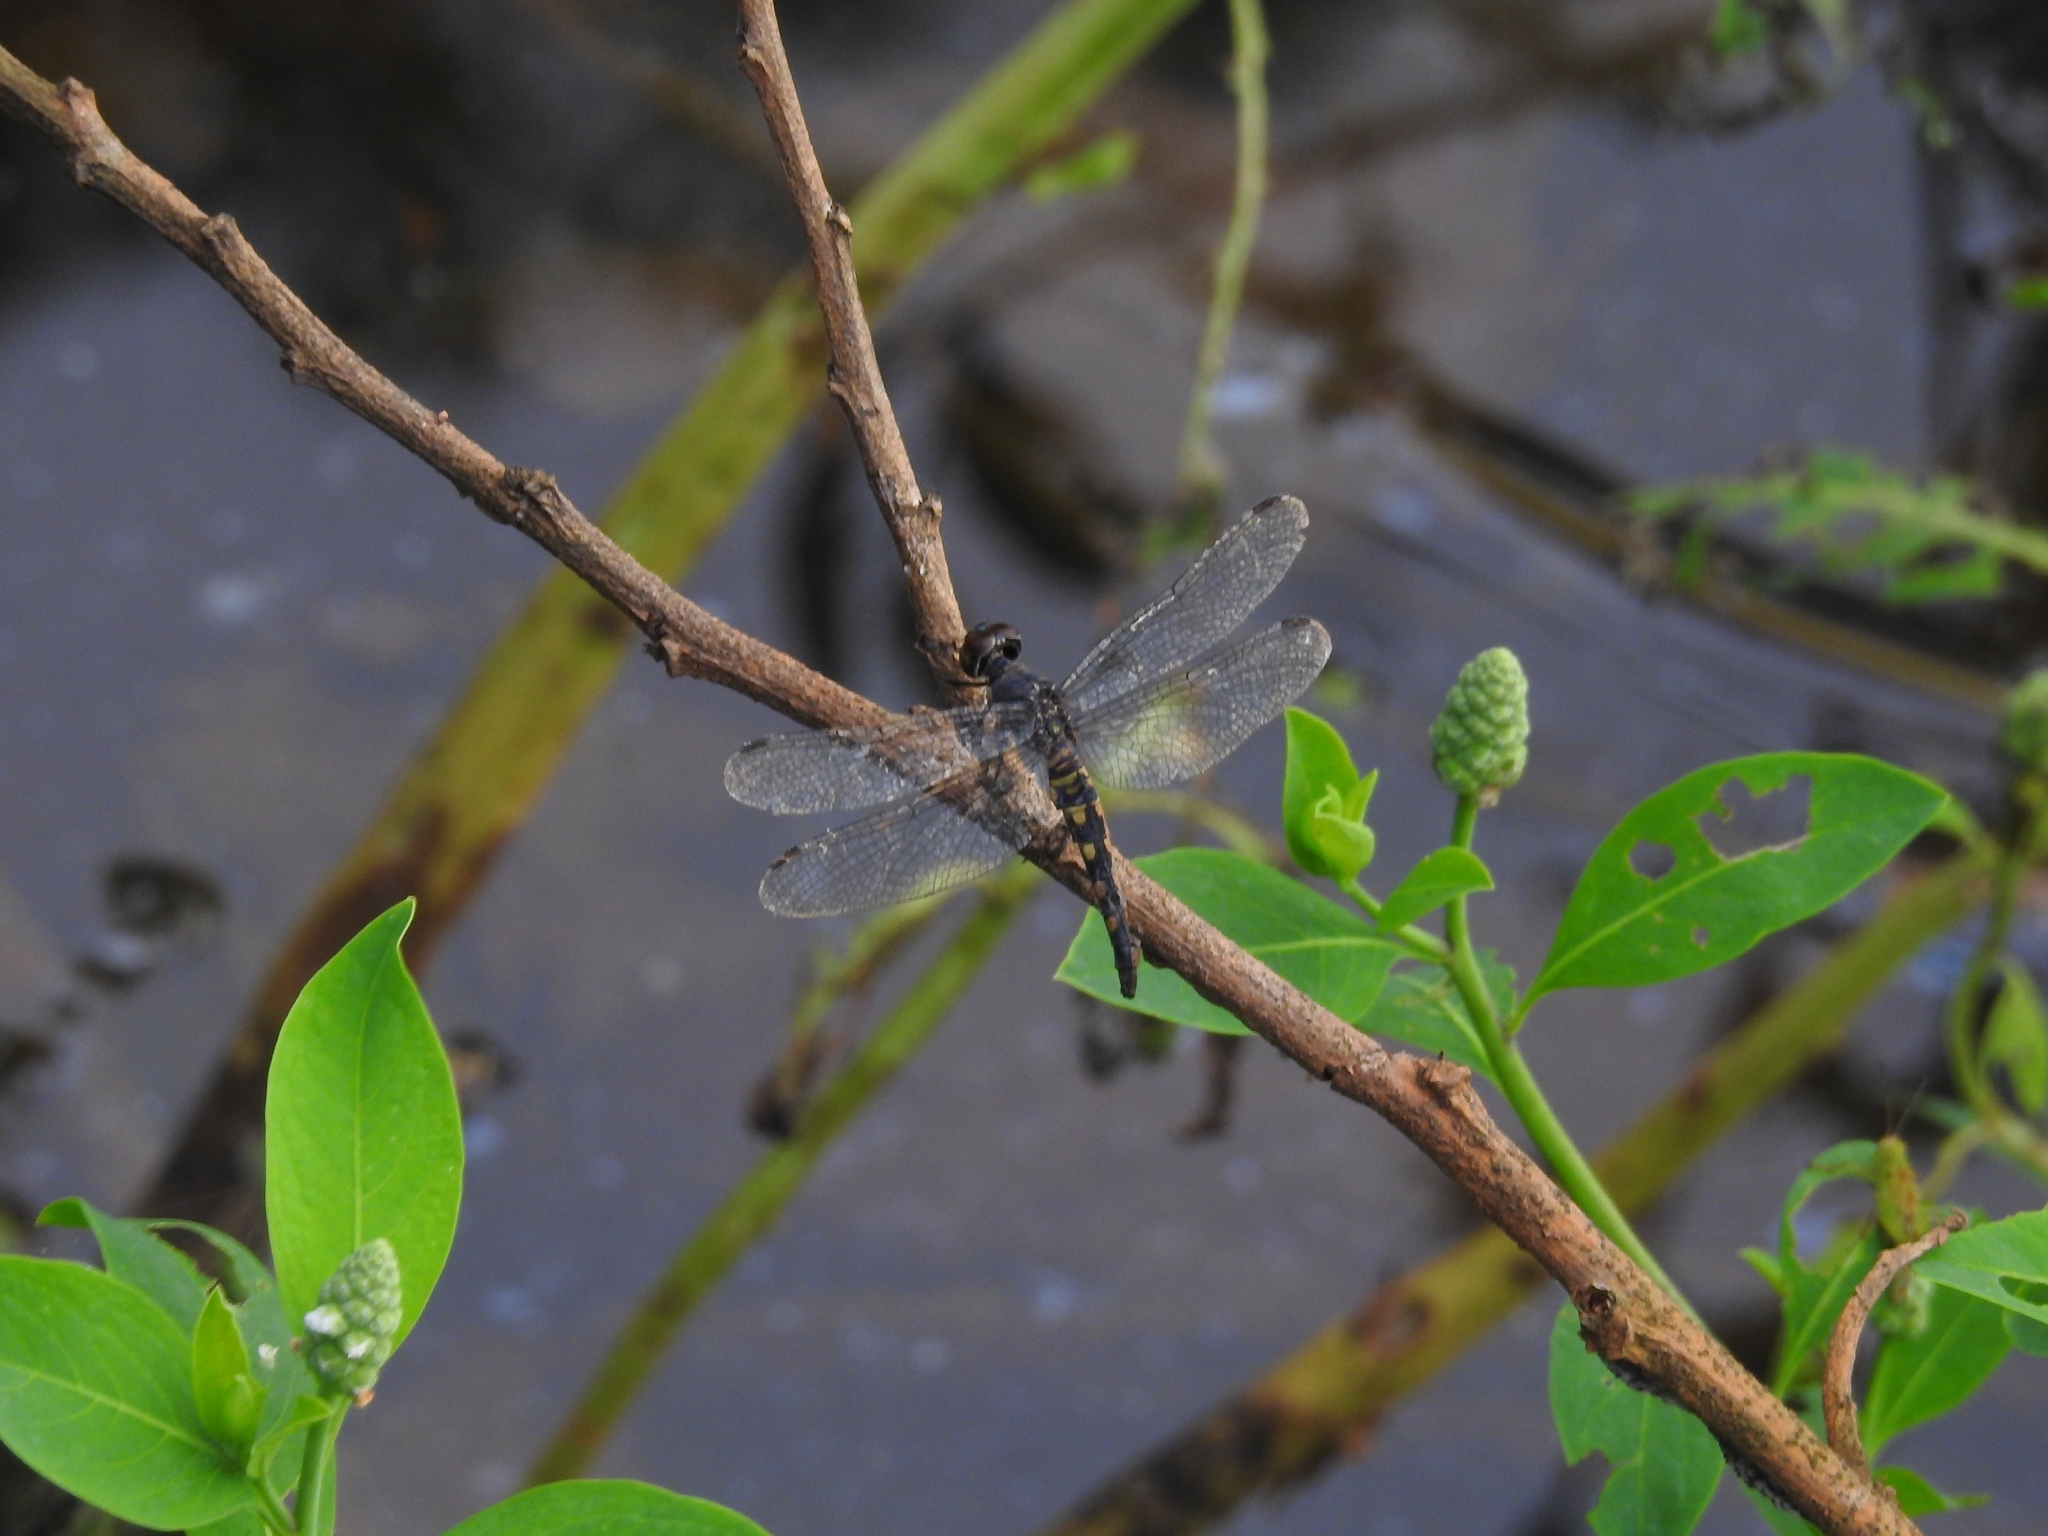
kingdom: Animalia
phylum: Arthropoda
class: Insecta
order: Odonata
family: Libellulidae
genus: Trithemis
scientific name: Trithemis festiva
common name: Indigo dropwing
